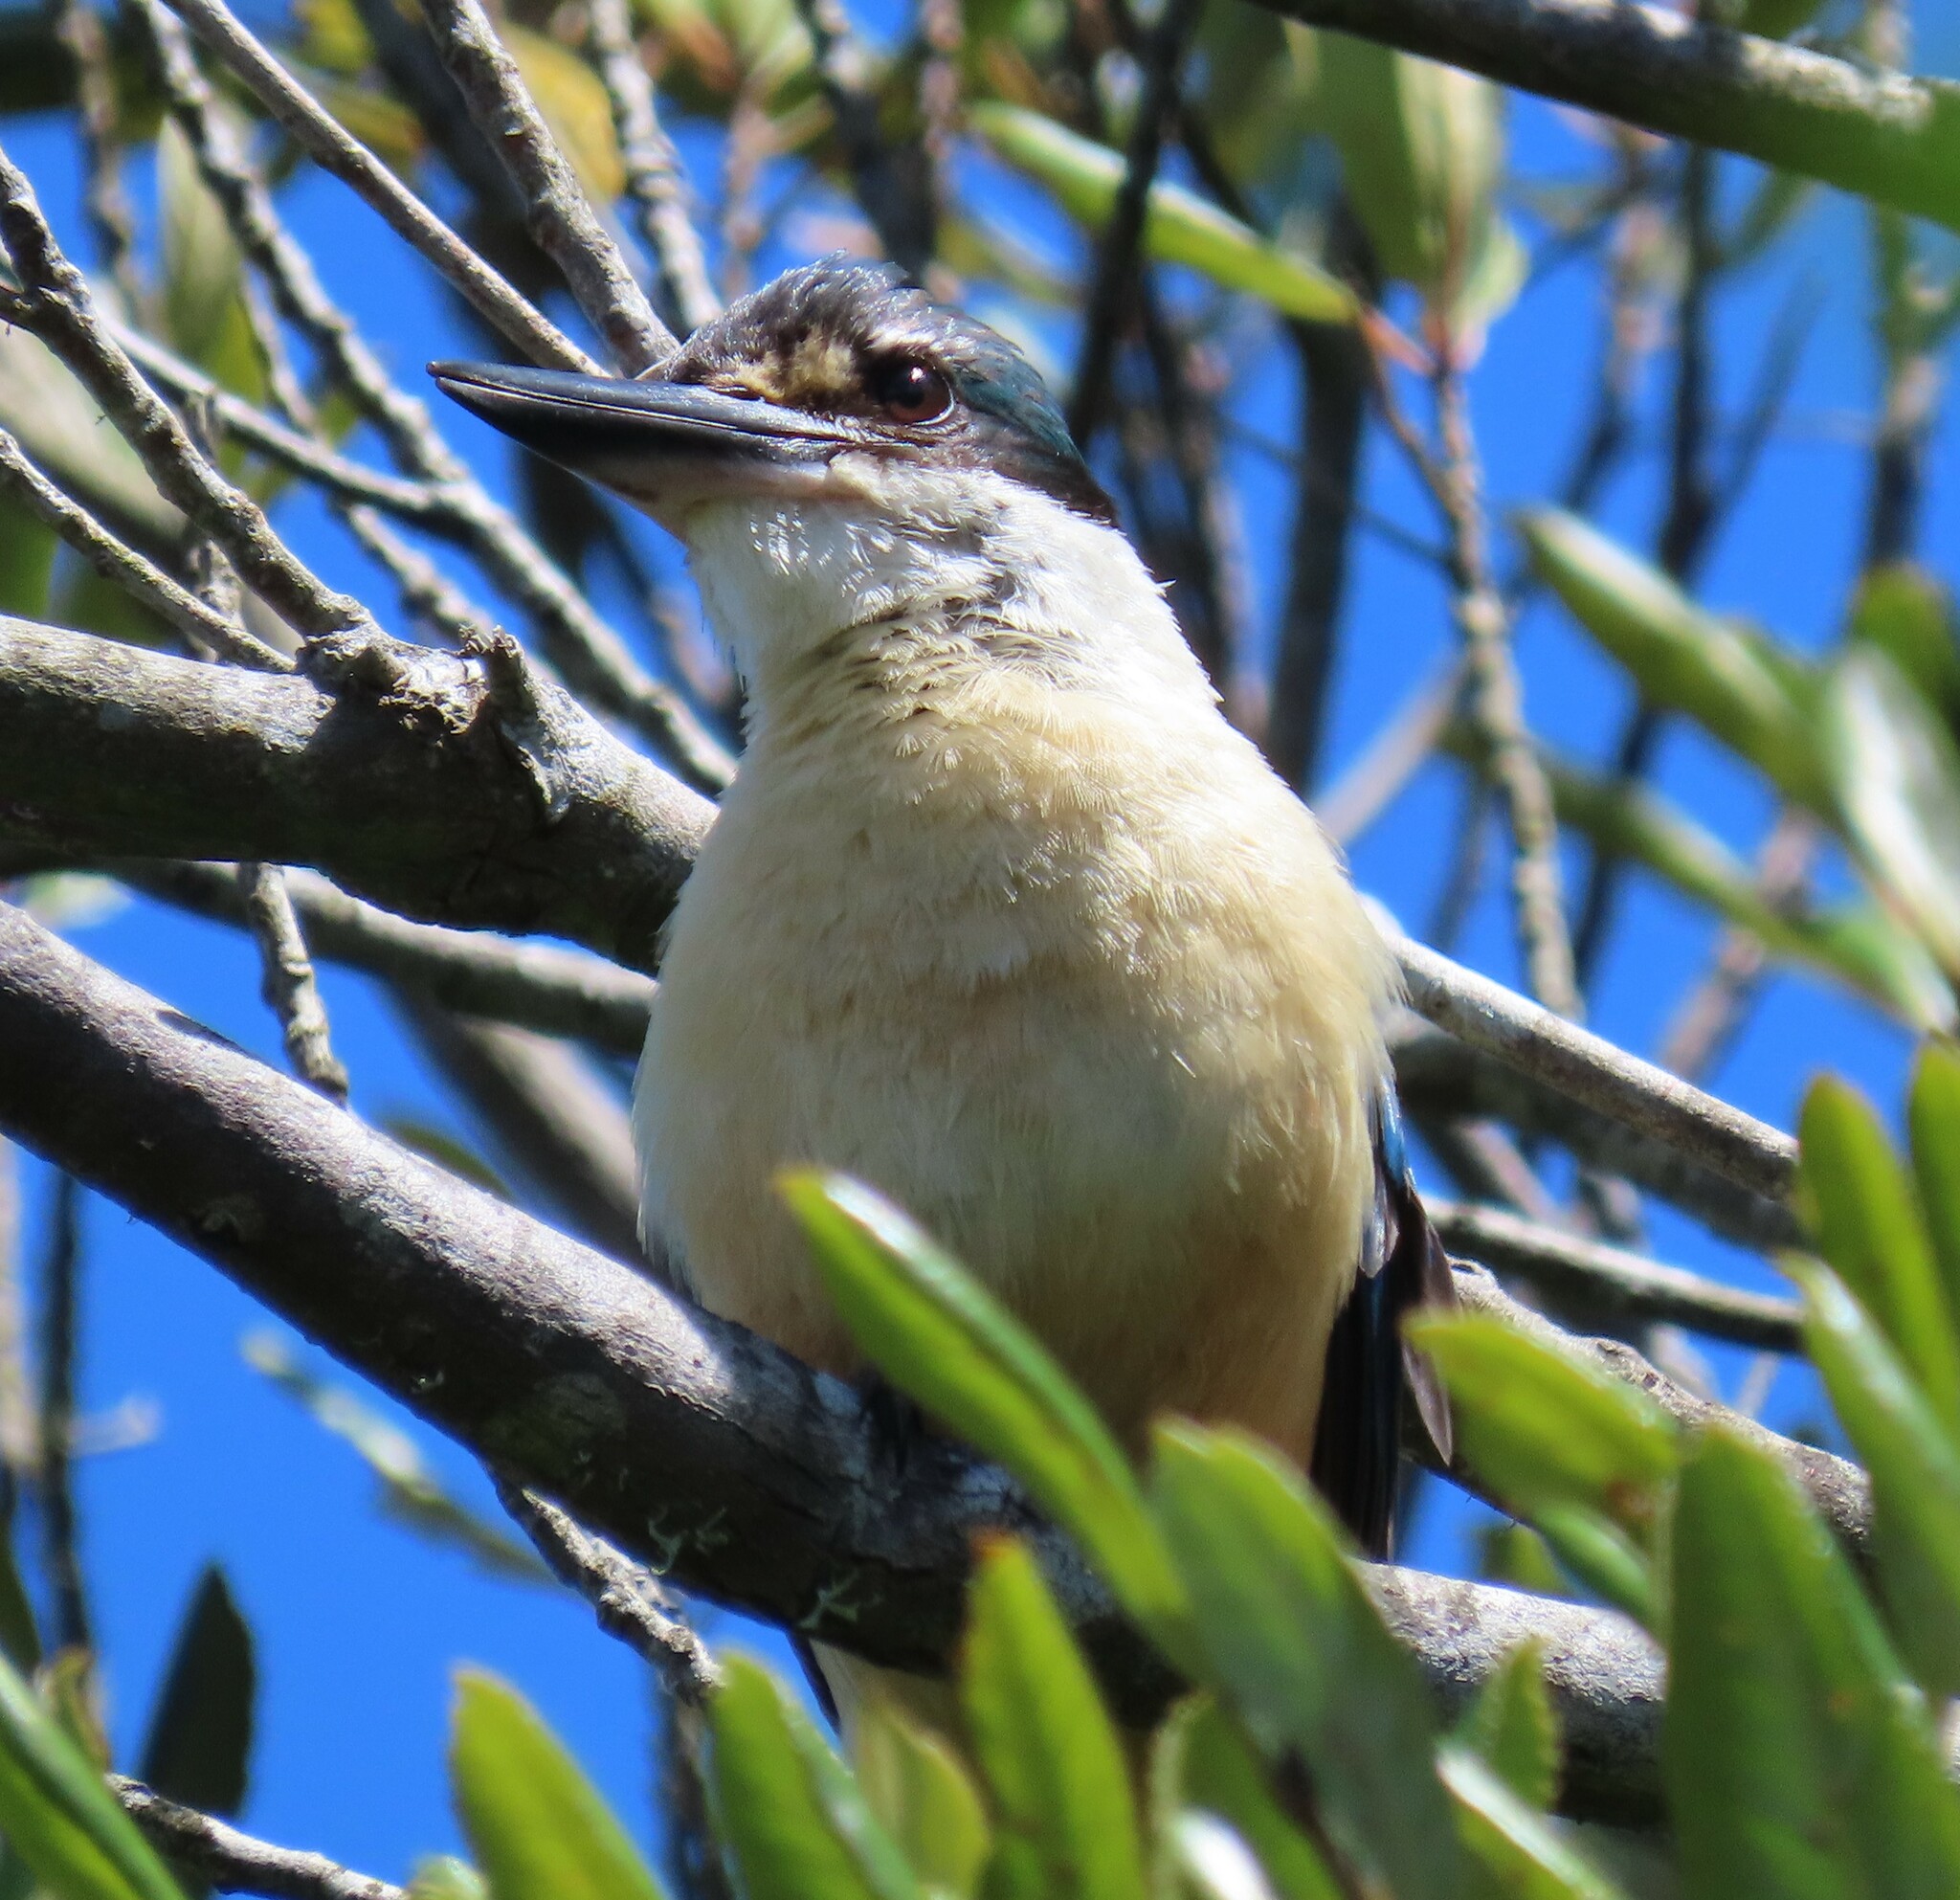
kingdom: Animalia
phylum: Chordata
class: Aves
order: Coraciiformes
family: Alcedinidae
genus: Todiramphus
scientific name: Todiramphus sanctus
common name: Sacred kingfisher
